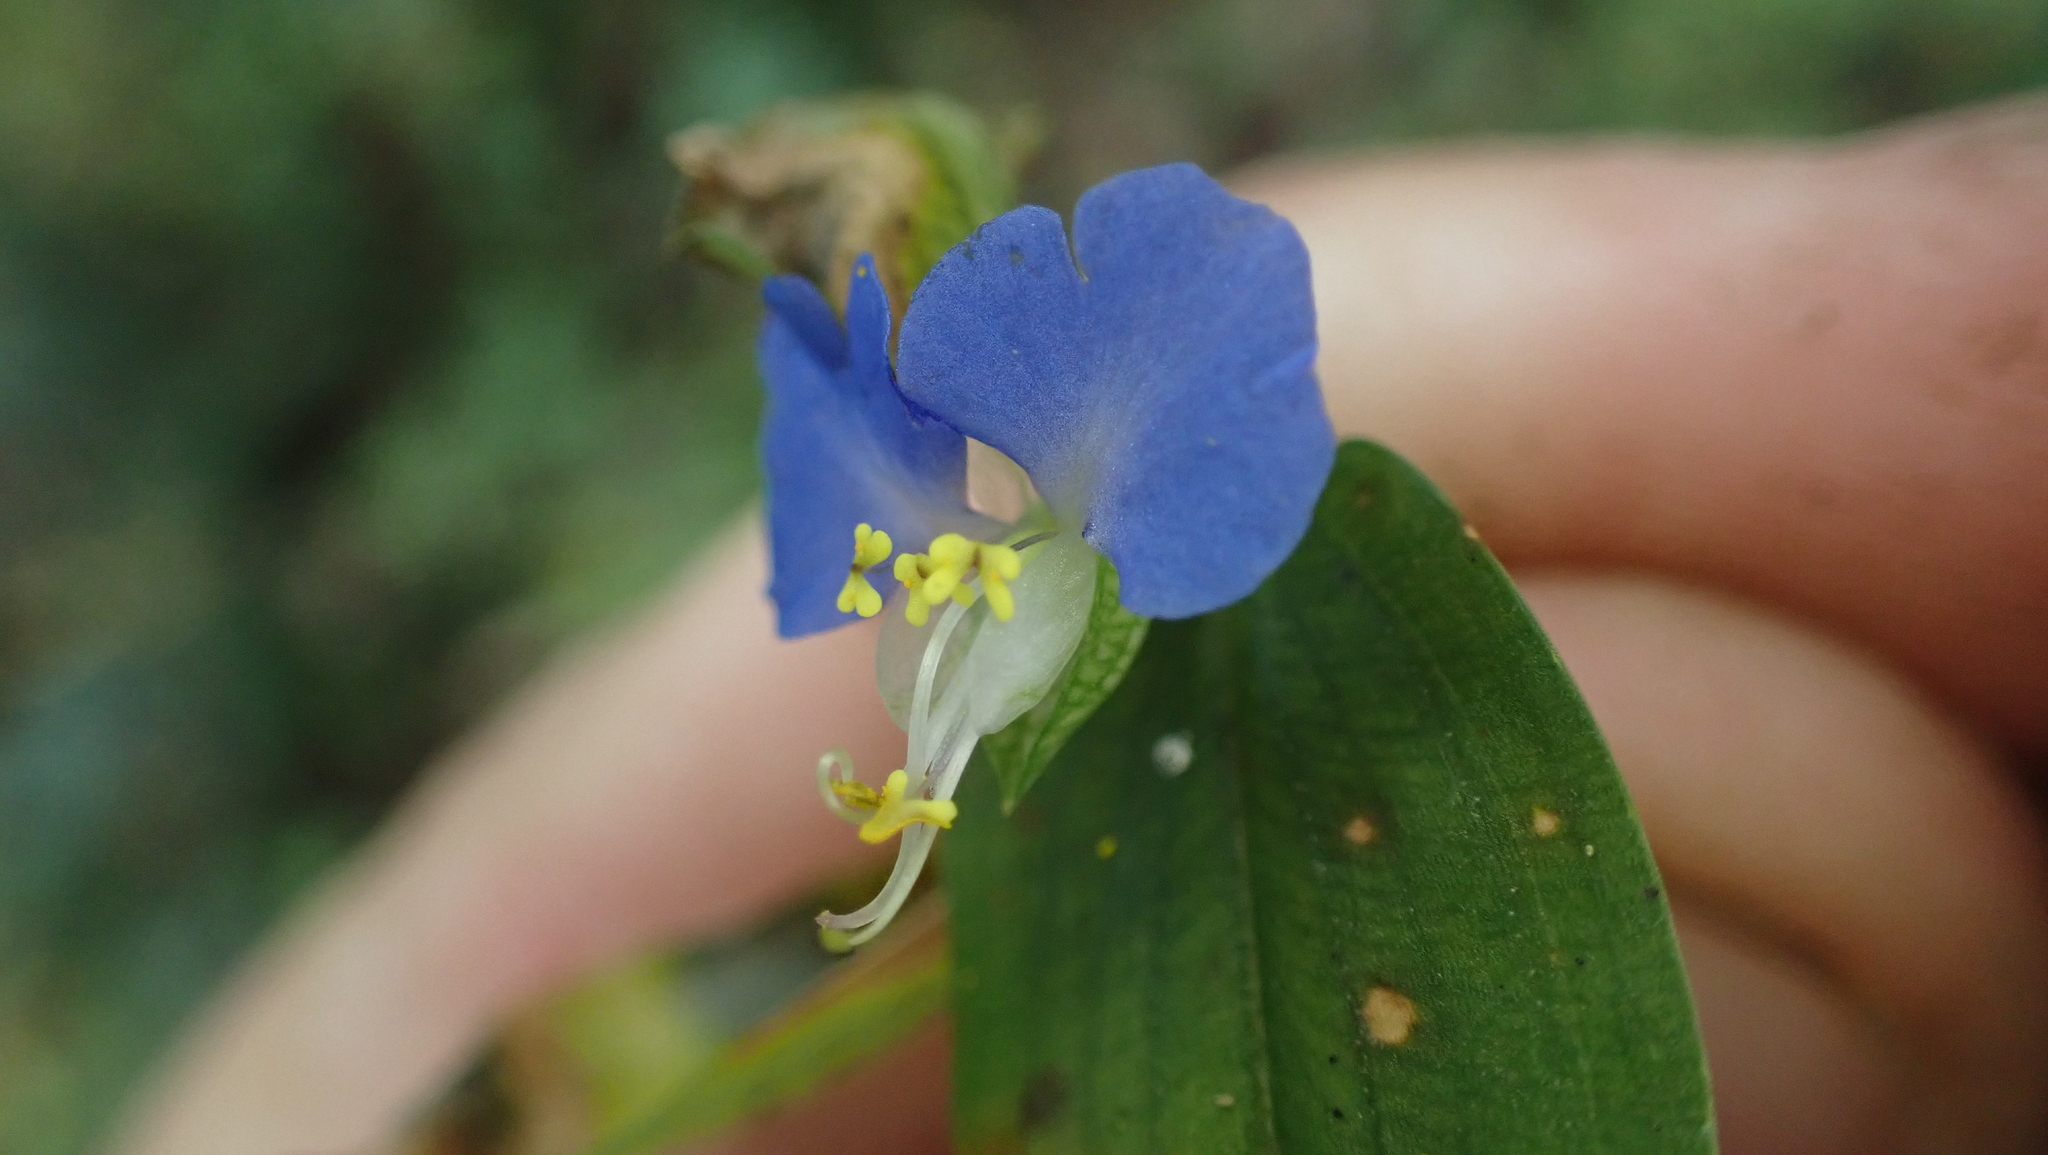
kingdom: Plantae
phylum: Tracheophyta
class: Liliopsida
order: Commelinales
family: Commelinaceae
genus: Commelina
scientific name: Commelina communis
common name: Asiatic dayflower
